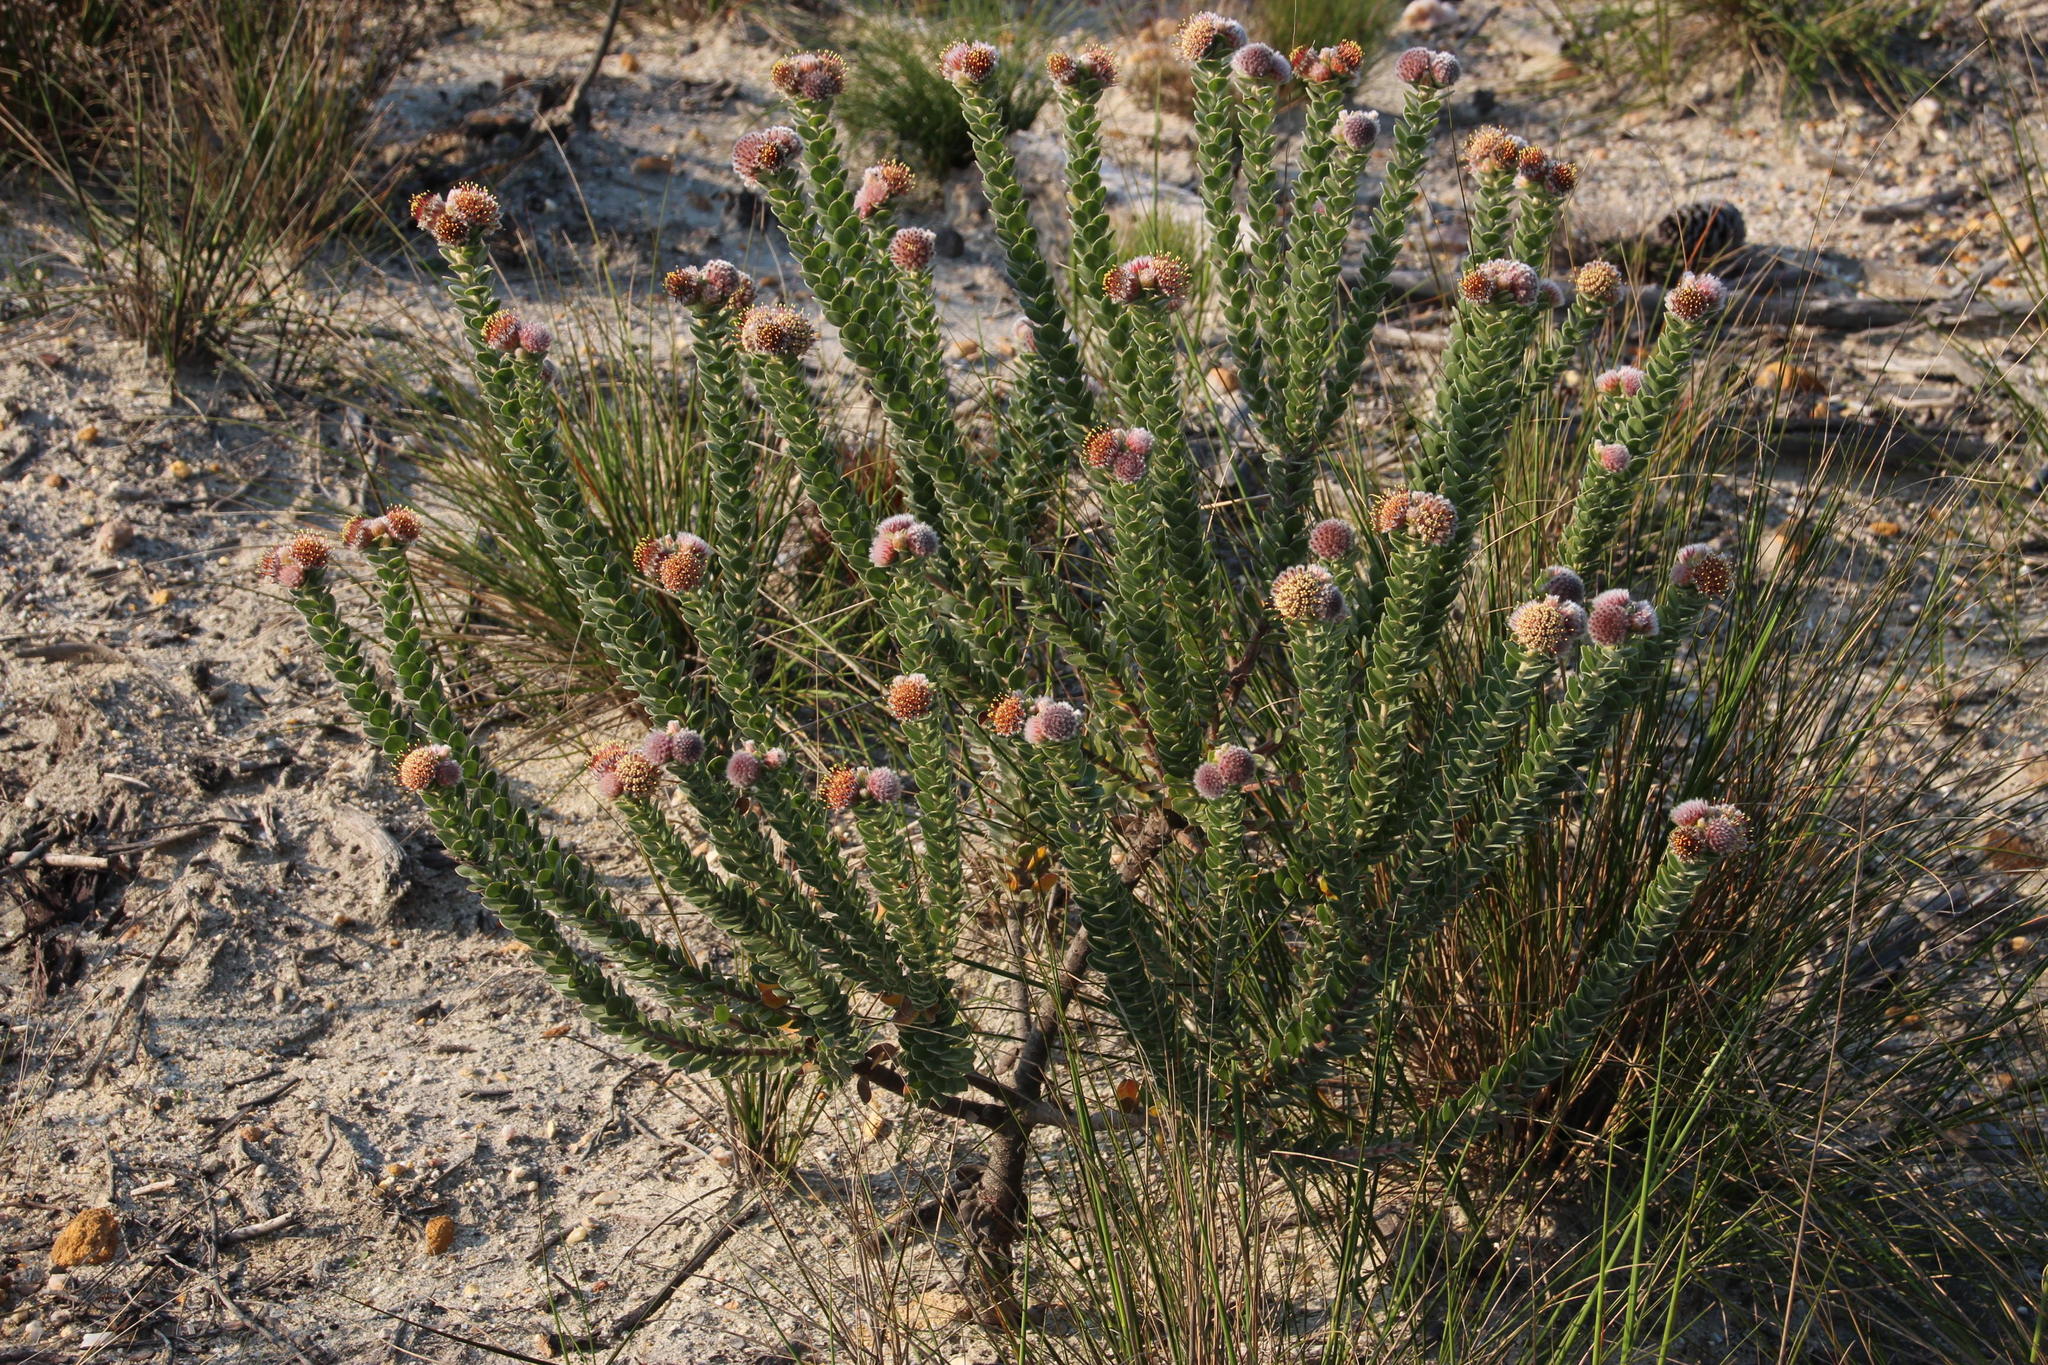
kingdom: Plantae
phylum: Tracheophyta
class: Magnoliopsida
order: Proteales
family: Proteaceae
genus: Leucospermum
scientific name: Leucospermum truncatulum
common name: Oval-leaf pincushion
